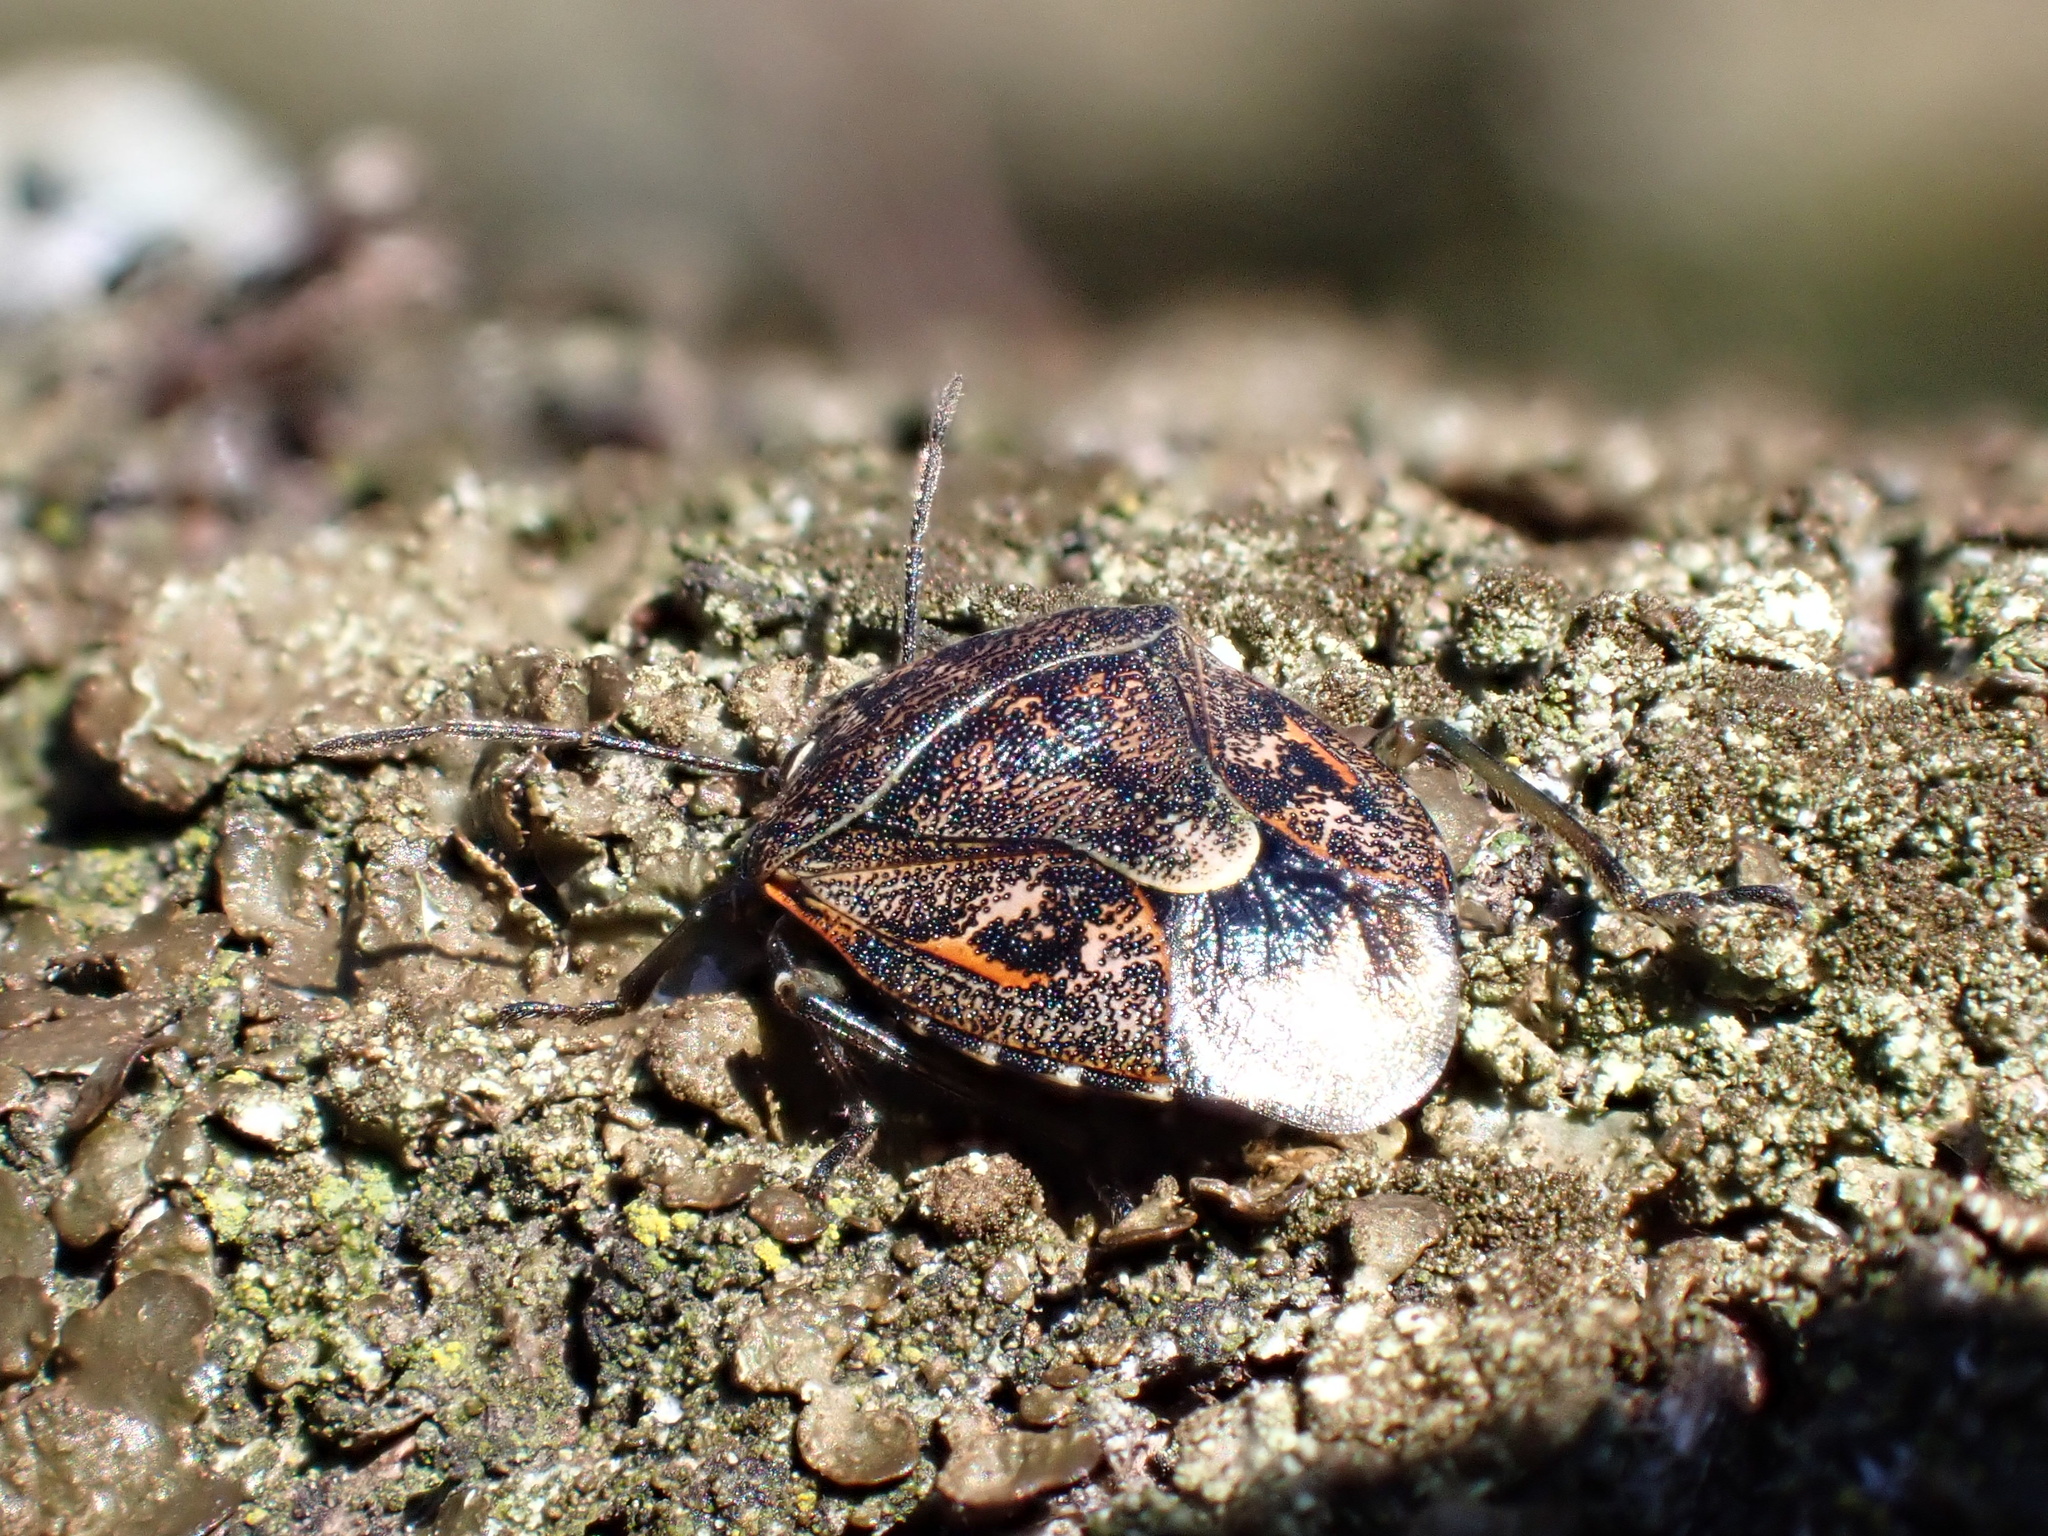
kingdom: Animalia
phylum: Arthropoda
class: Insecta
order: Hemiptera
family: Pentatomidae
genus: Holcogaster
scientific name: Holcogaster fibulata
